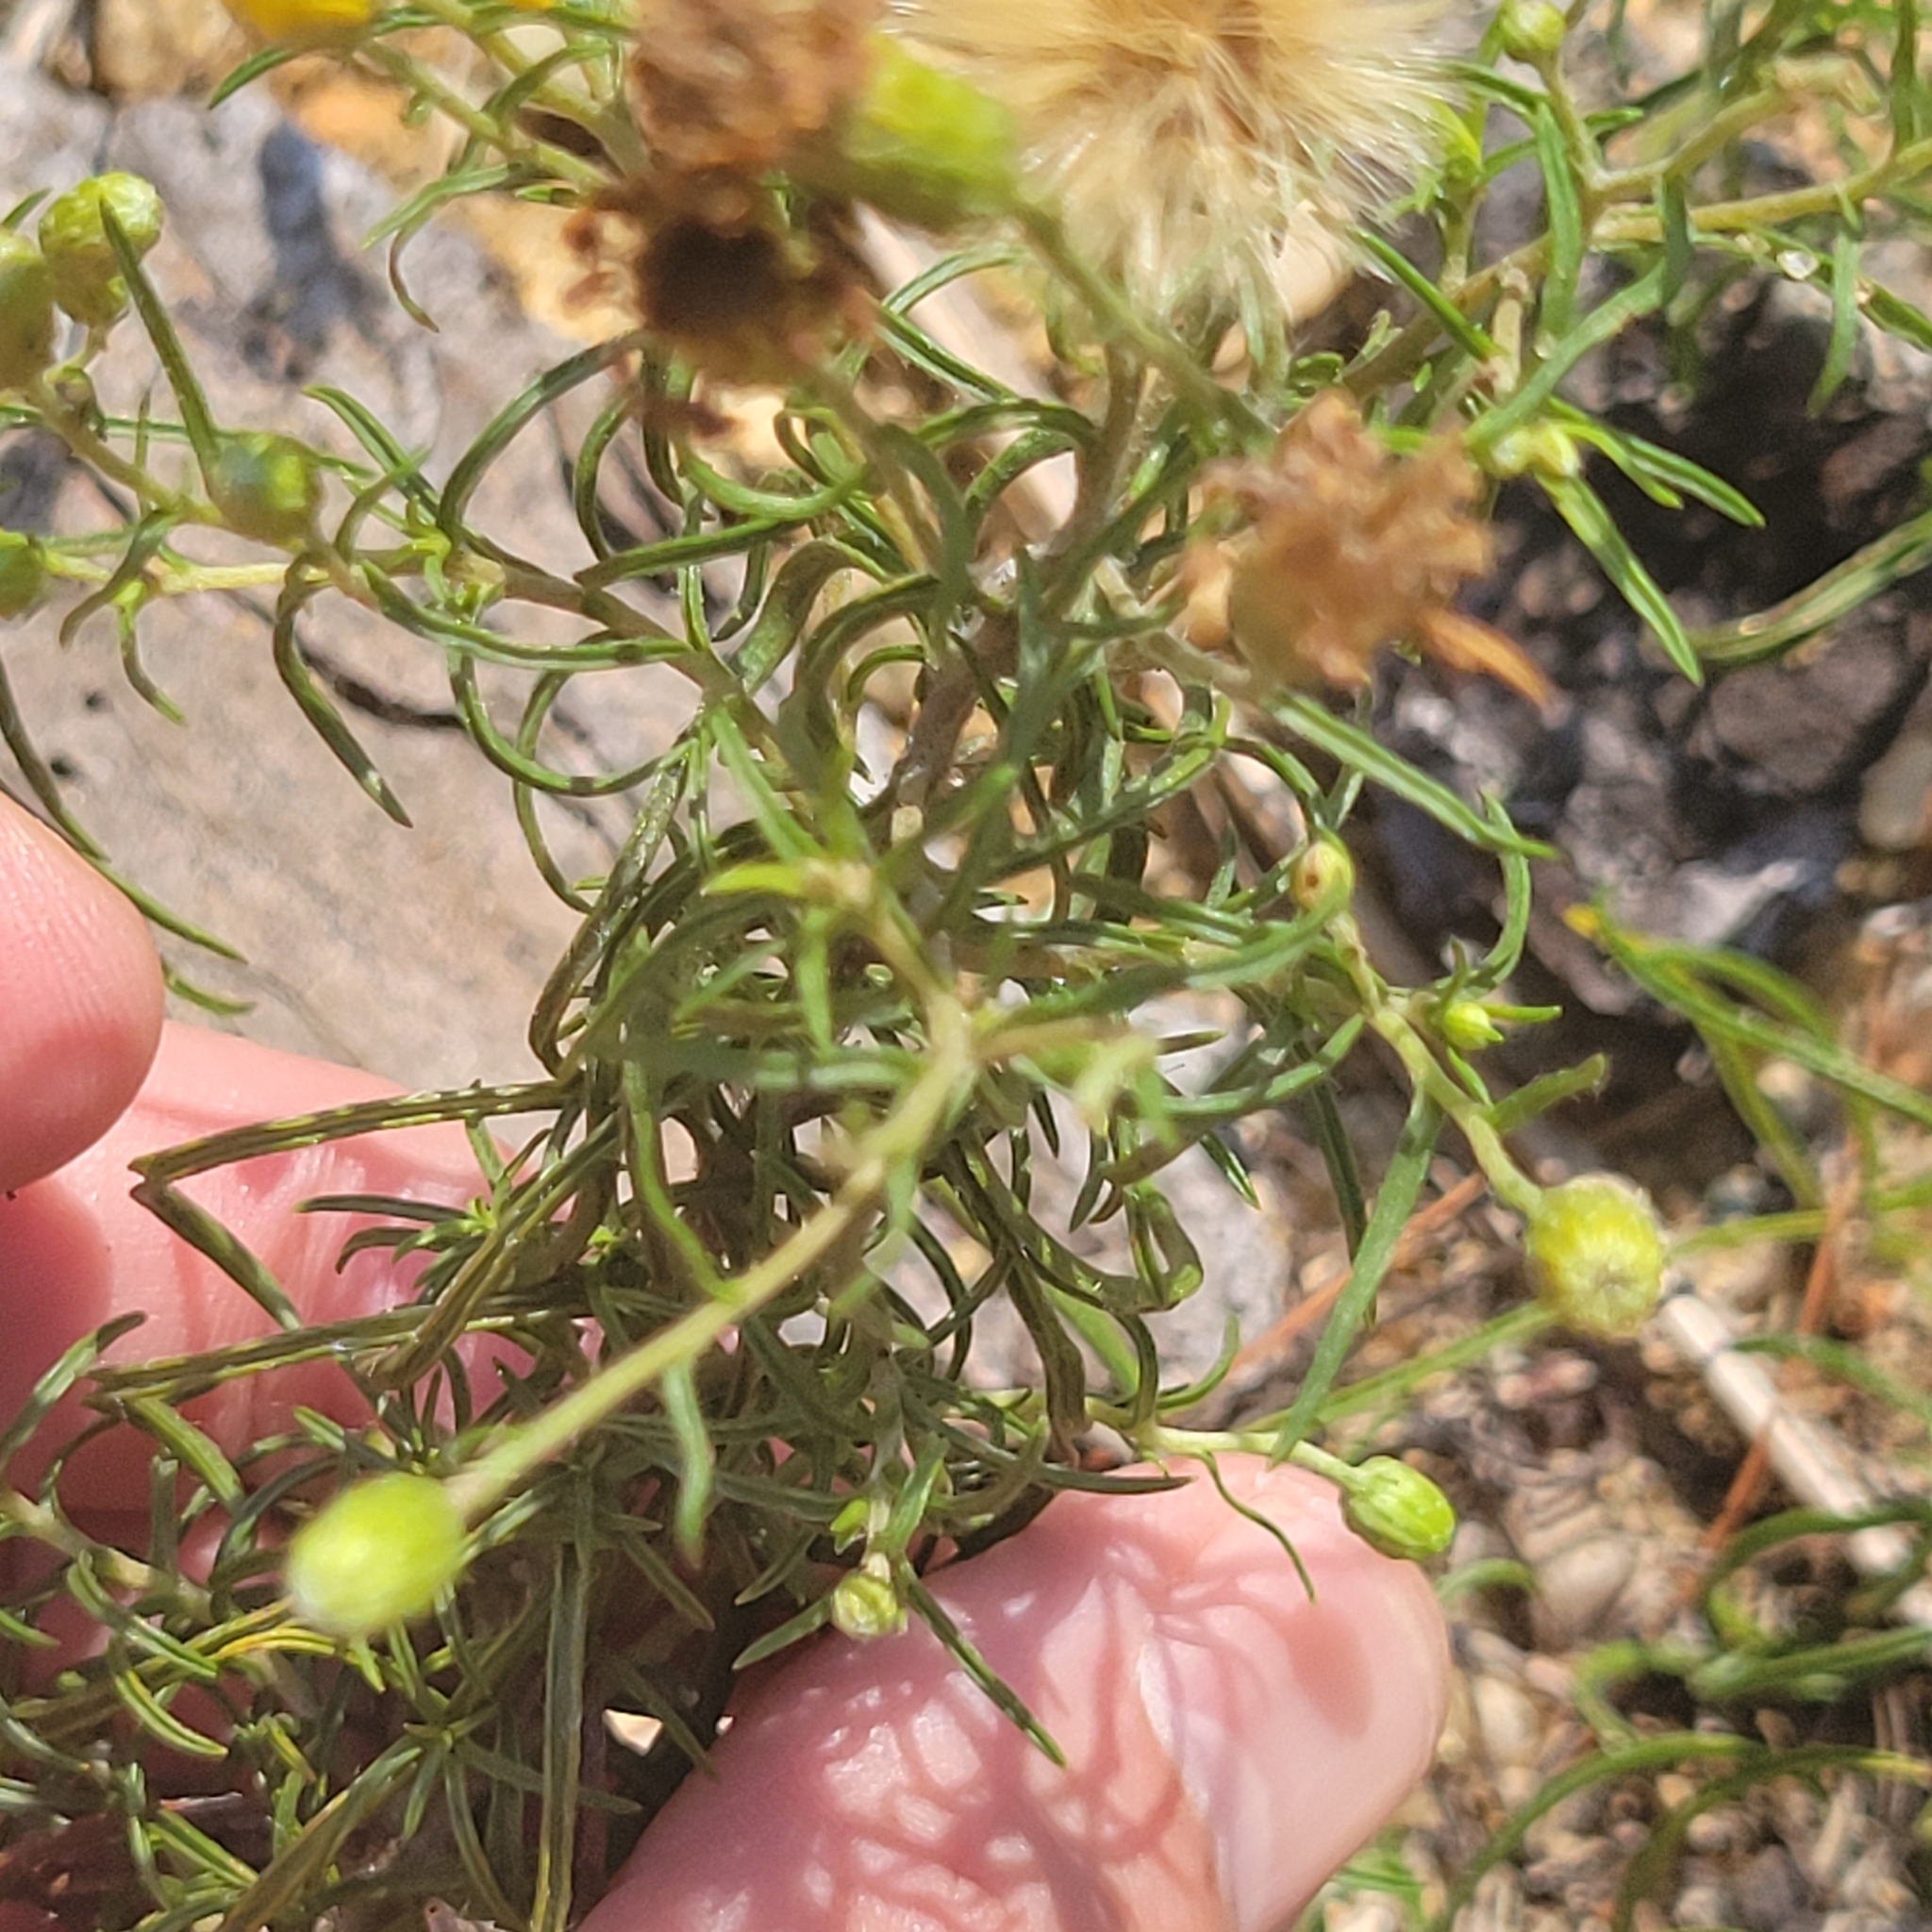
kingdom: Plantae
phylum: Tracheophyta
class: Magnoliopsida
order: Asterales
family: Asteraceae
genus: Pityopsis
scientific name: Pityopsis falcata
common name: Sickle-leaved goldenaster
